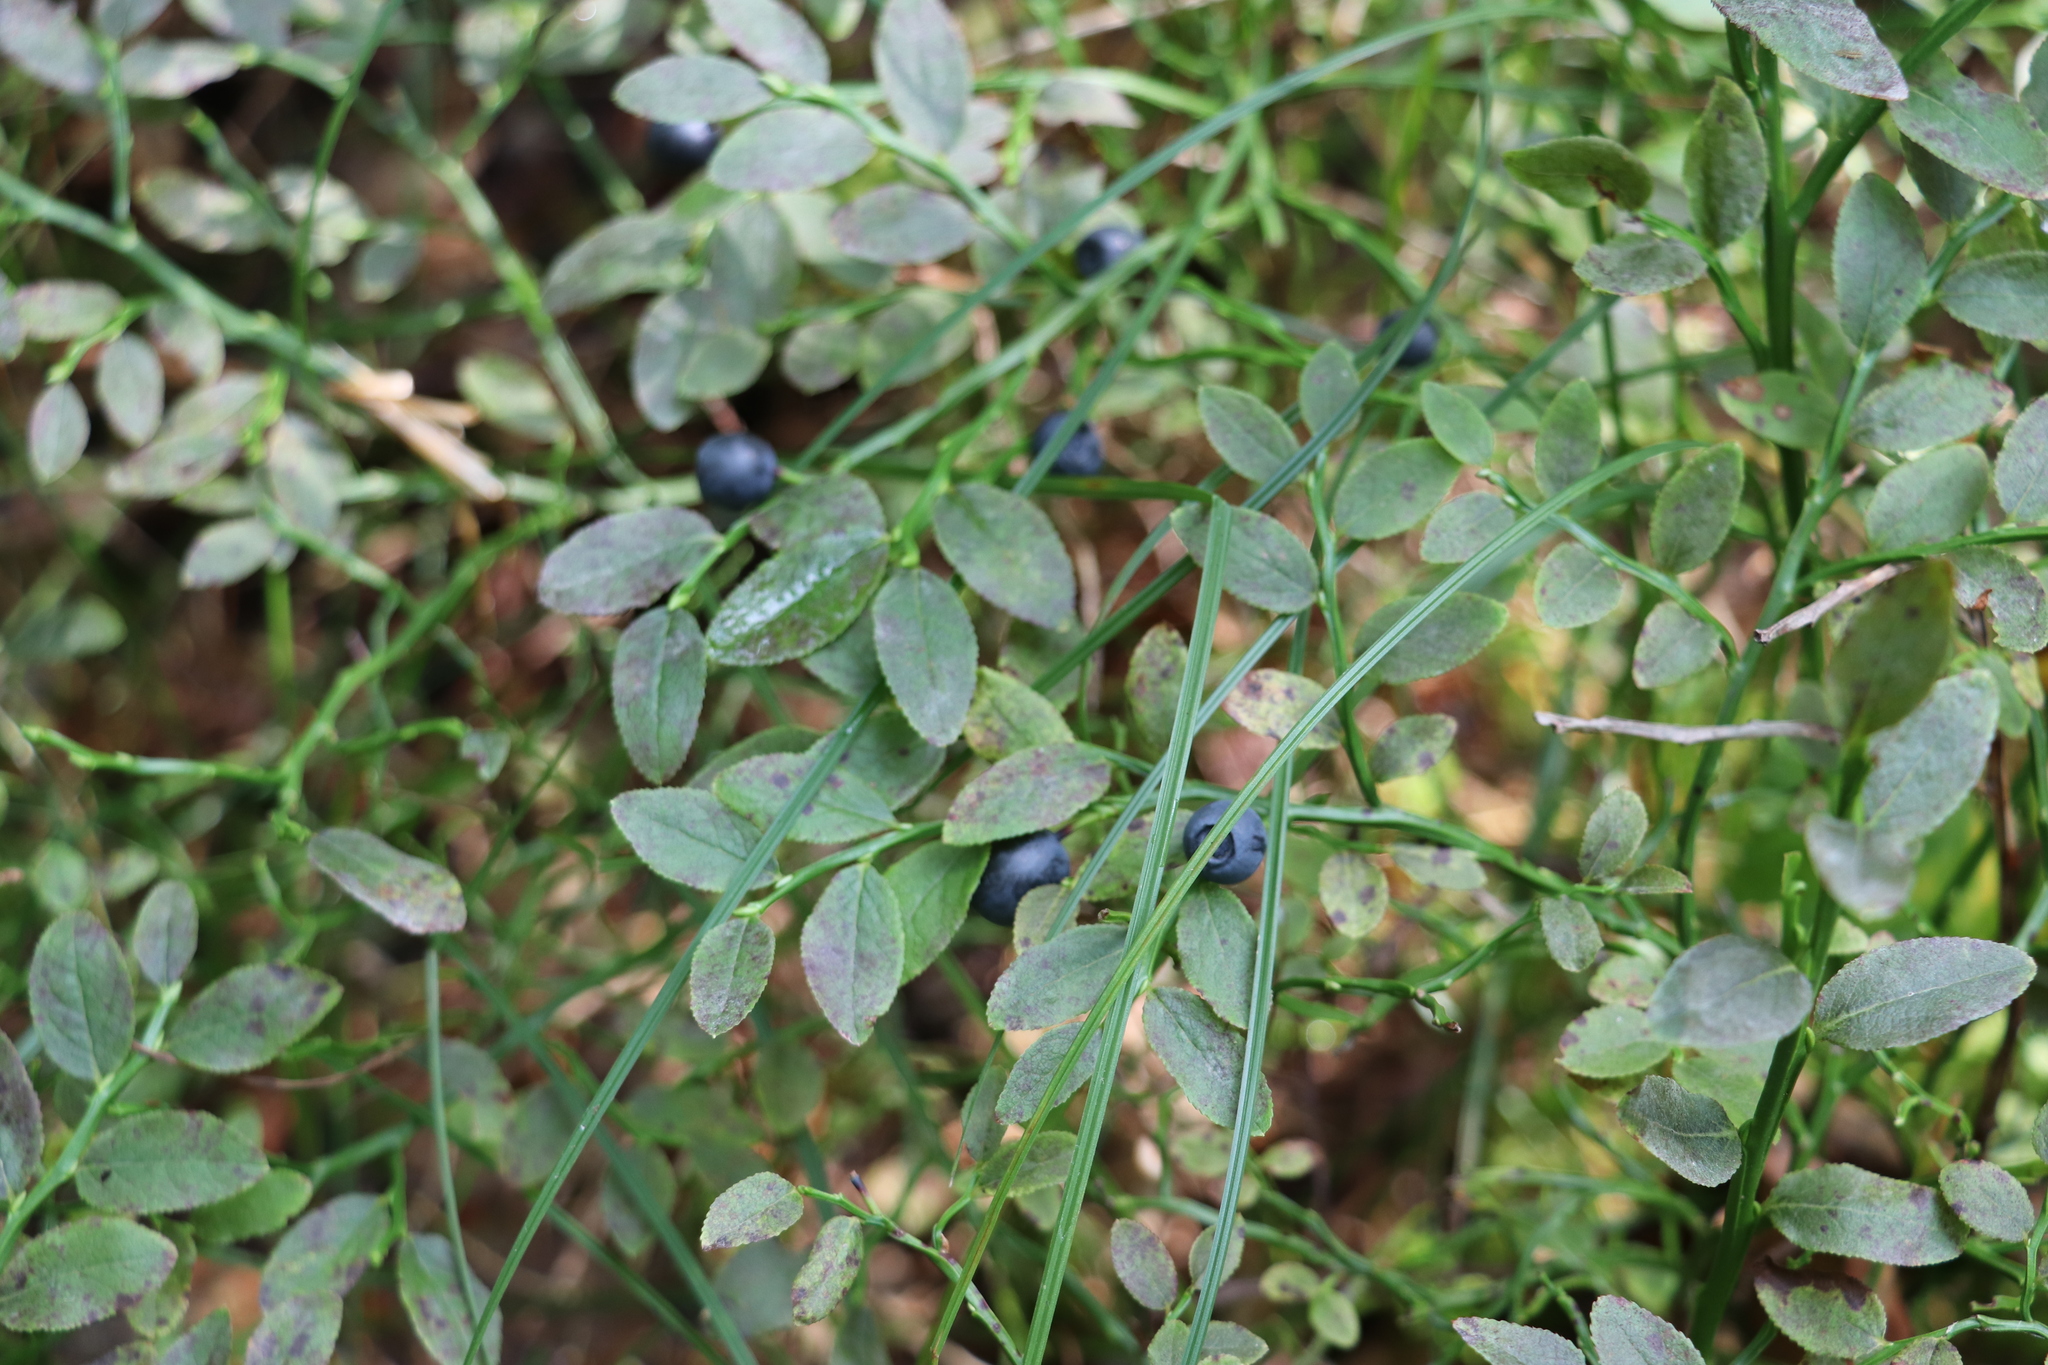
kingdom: Plantae
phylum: Tracheophyta
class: Magnoliopsida
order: Ericales
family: Ericaceae
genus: Vaccinium
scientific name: Vaccinium myrtillus
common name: Bilberry
